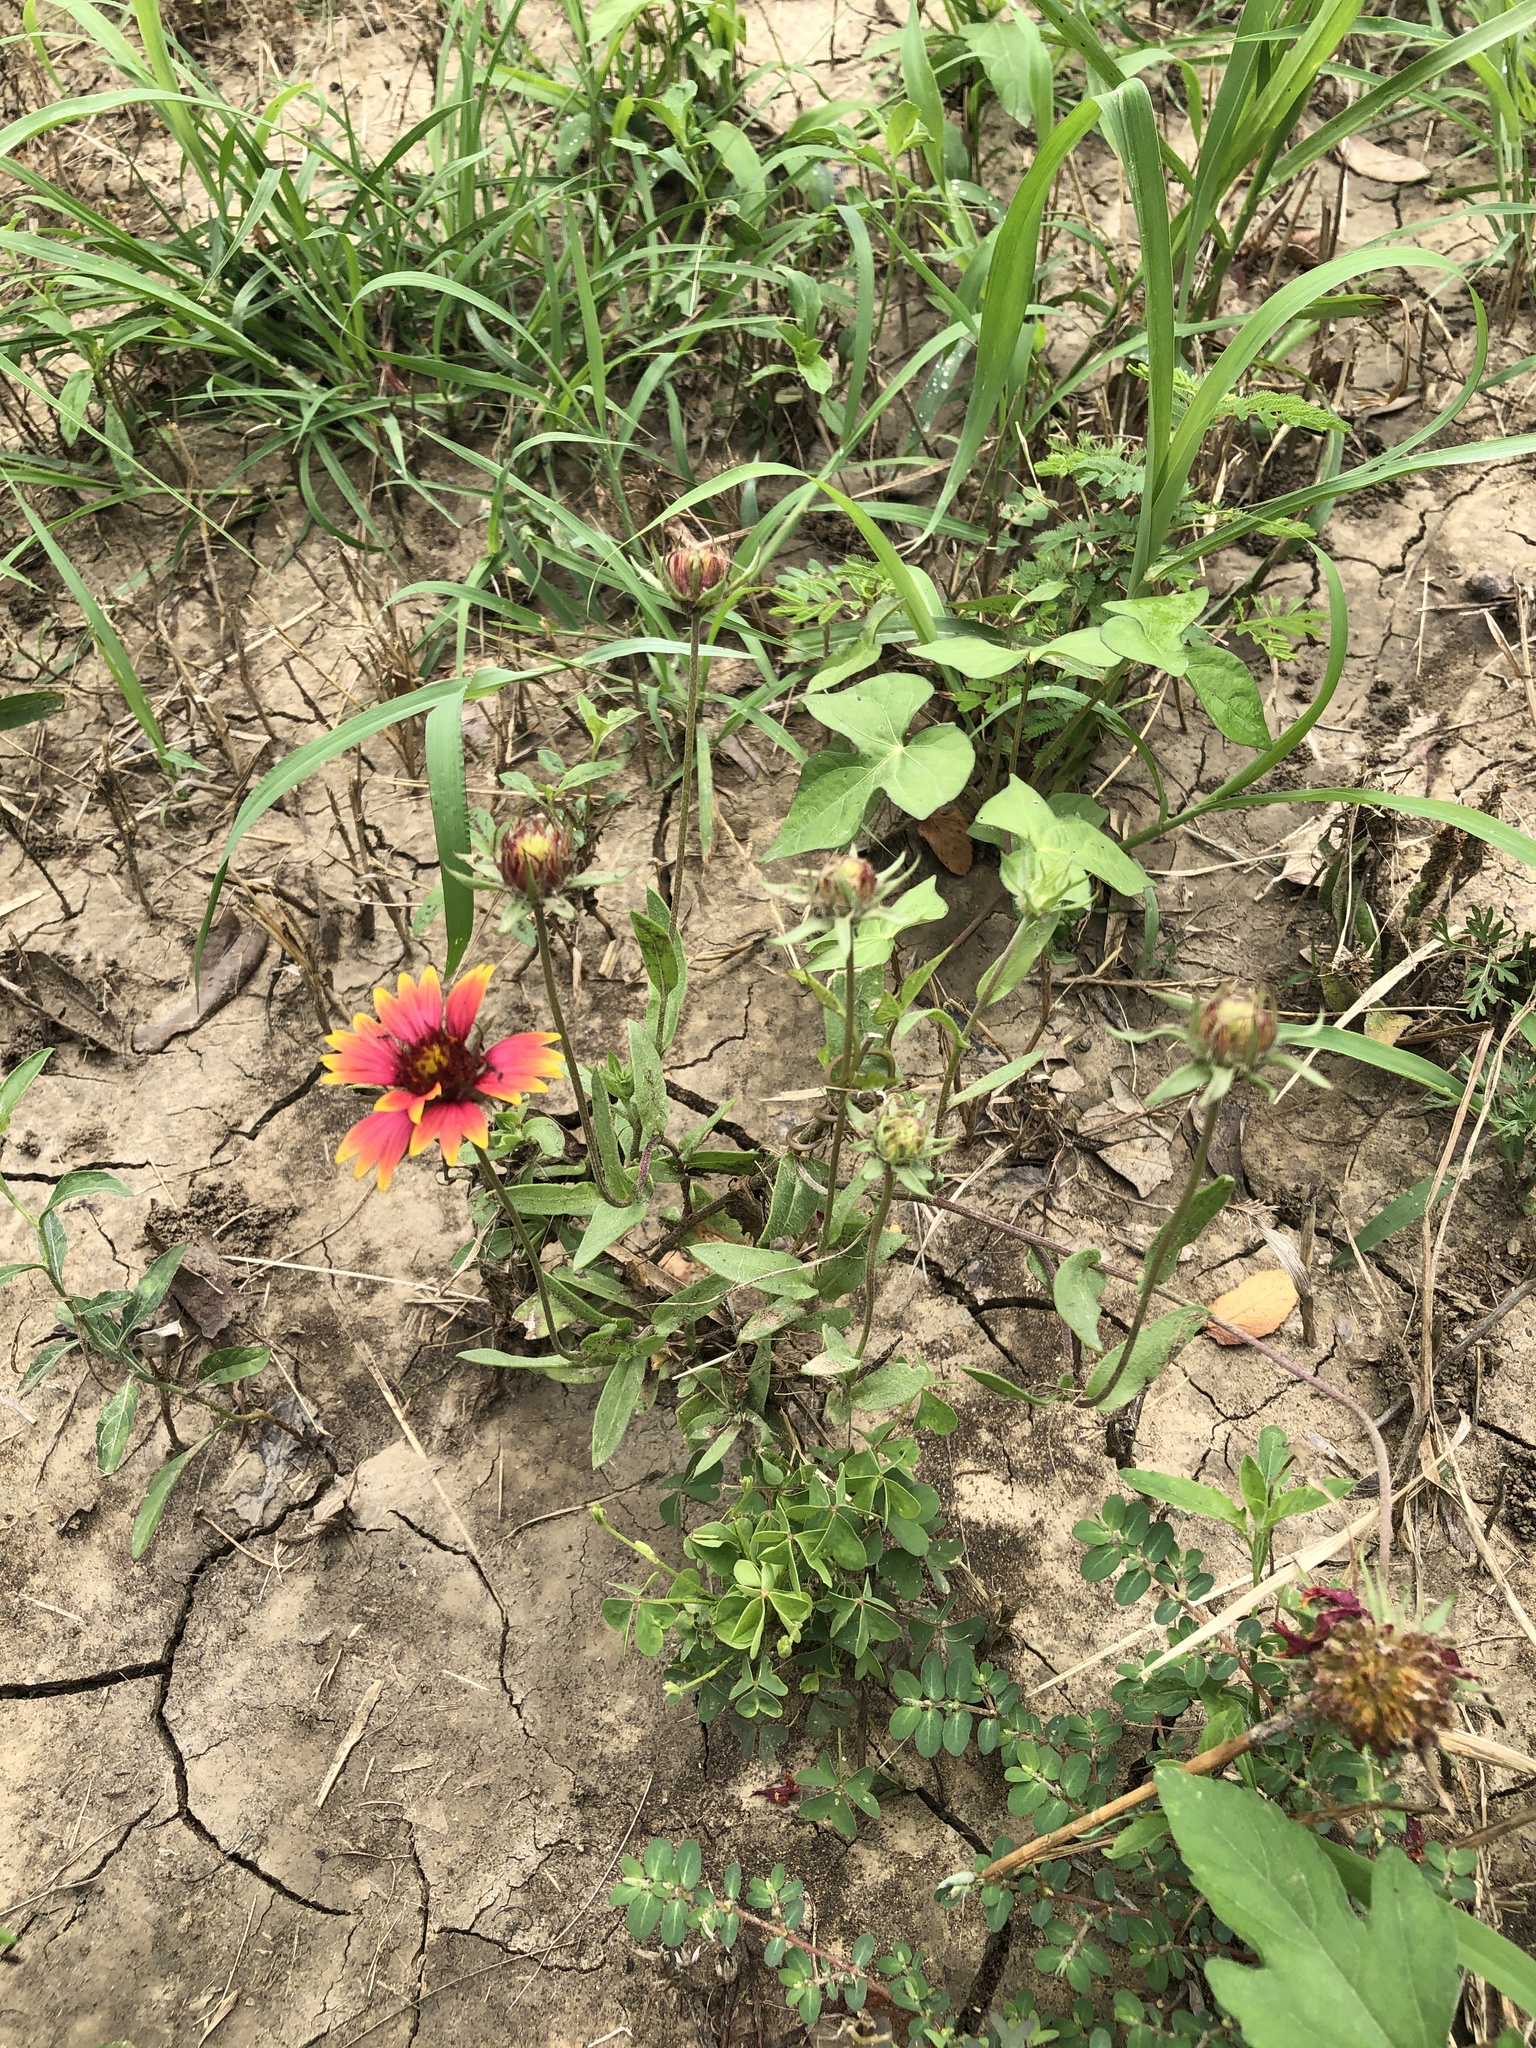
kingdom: Plantae
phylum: Tracheophyta
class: Magnoliopsida
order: Asterales
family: Asteraceae
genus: Gaillardia
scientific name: Gaillardia pulchella
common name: Firewheel
